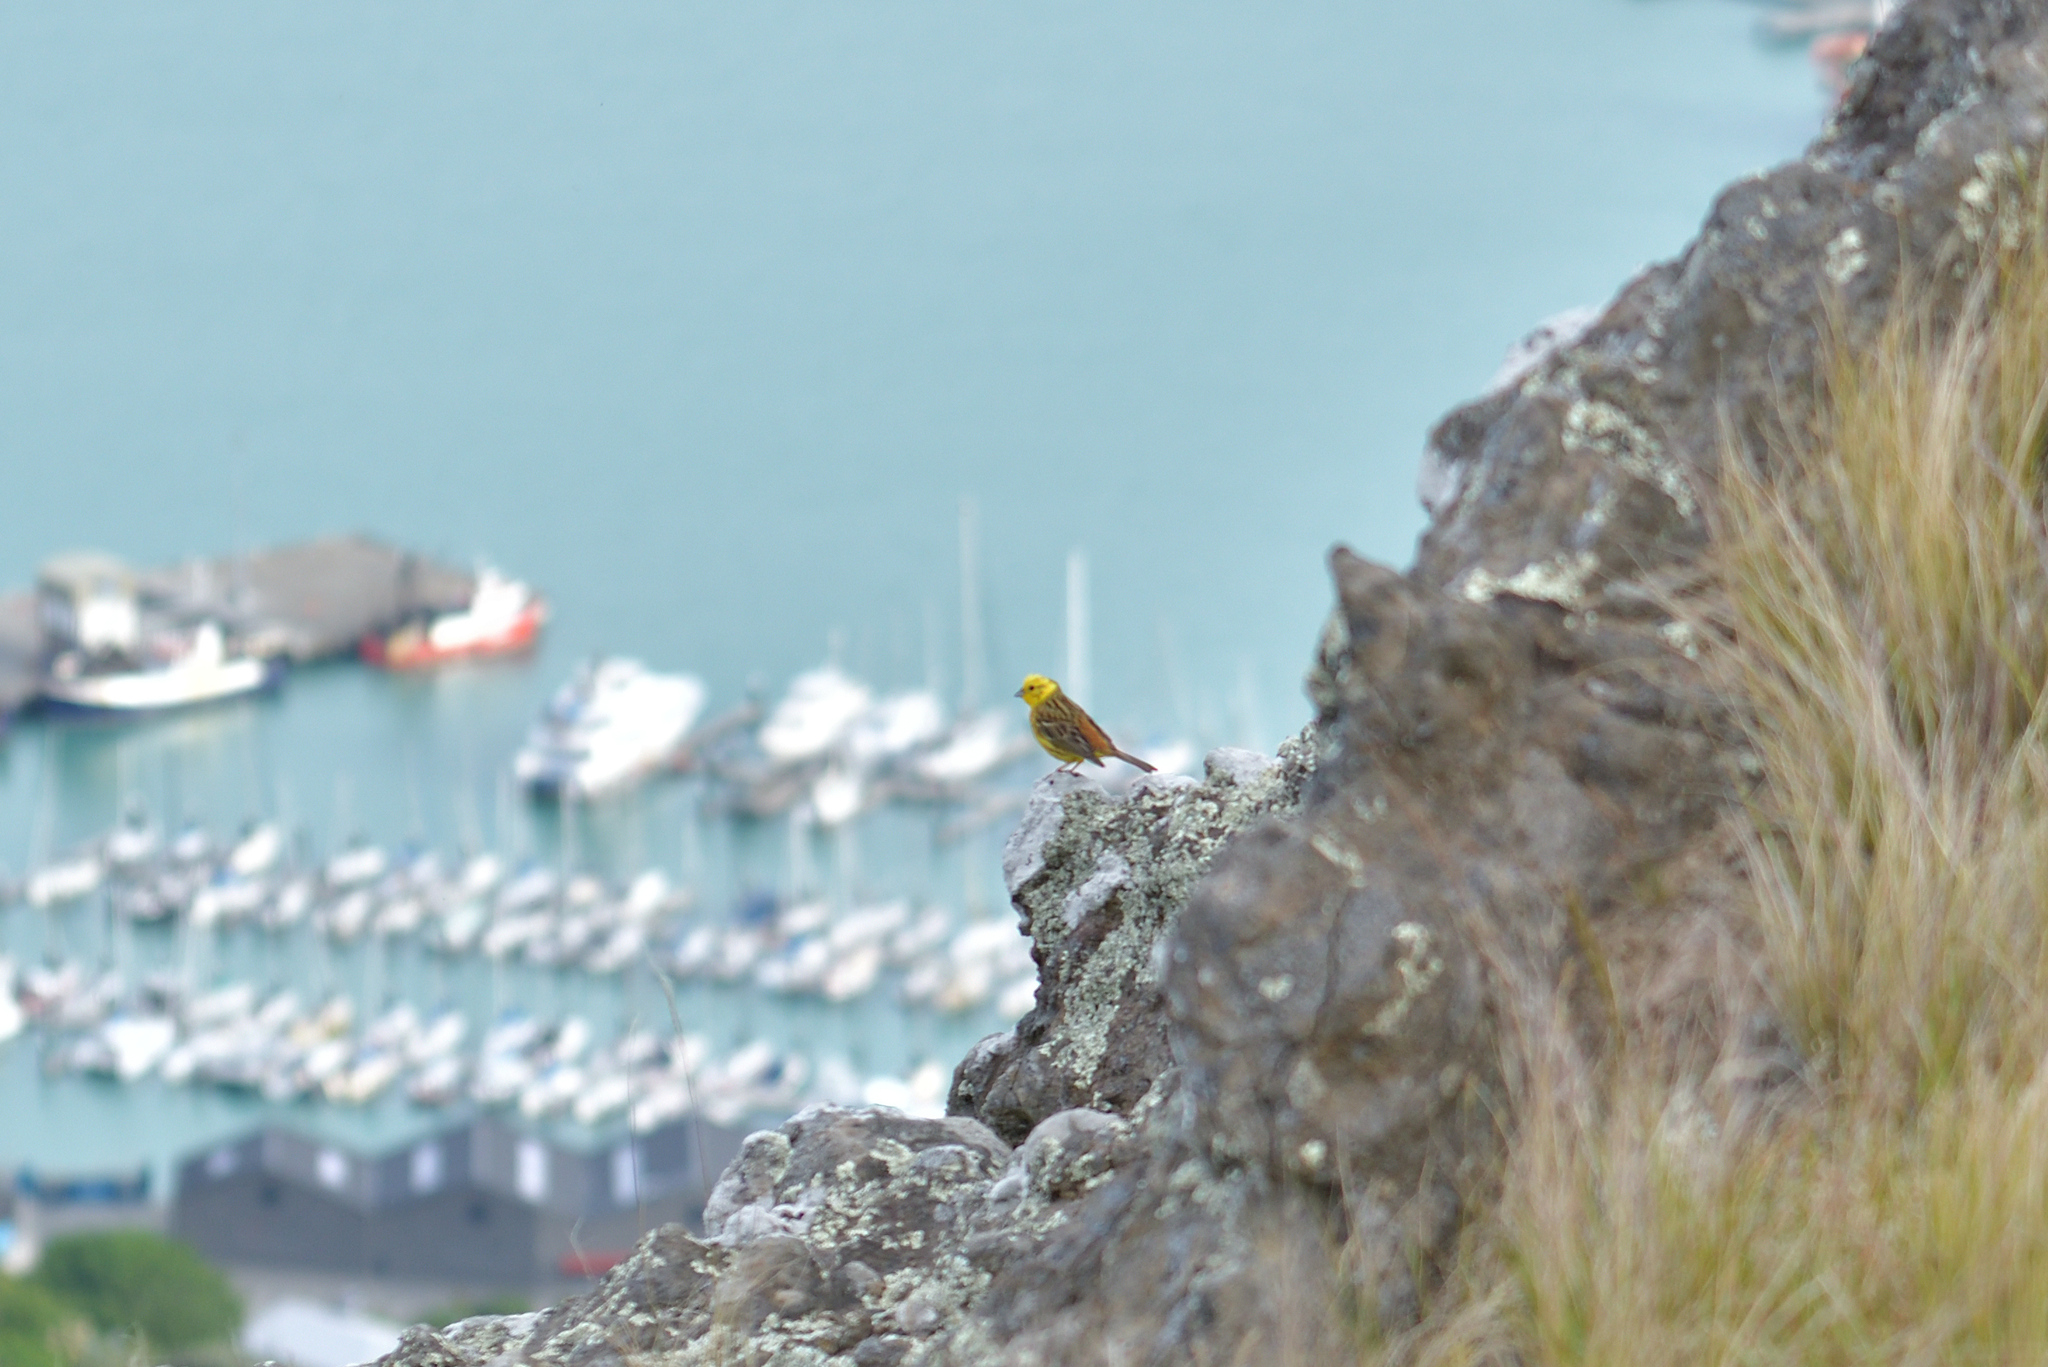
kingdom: Animalia
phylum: Chordata
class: Aves
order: Passeriformes
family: Emberizidae
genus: Emberiza
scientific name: Emberiza citrinella
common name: Yellowhammer
